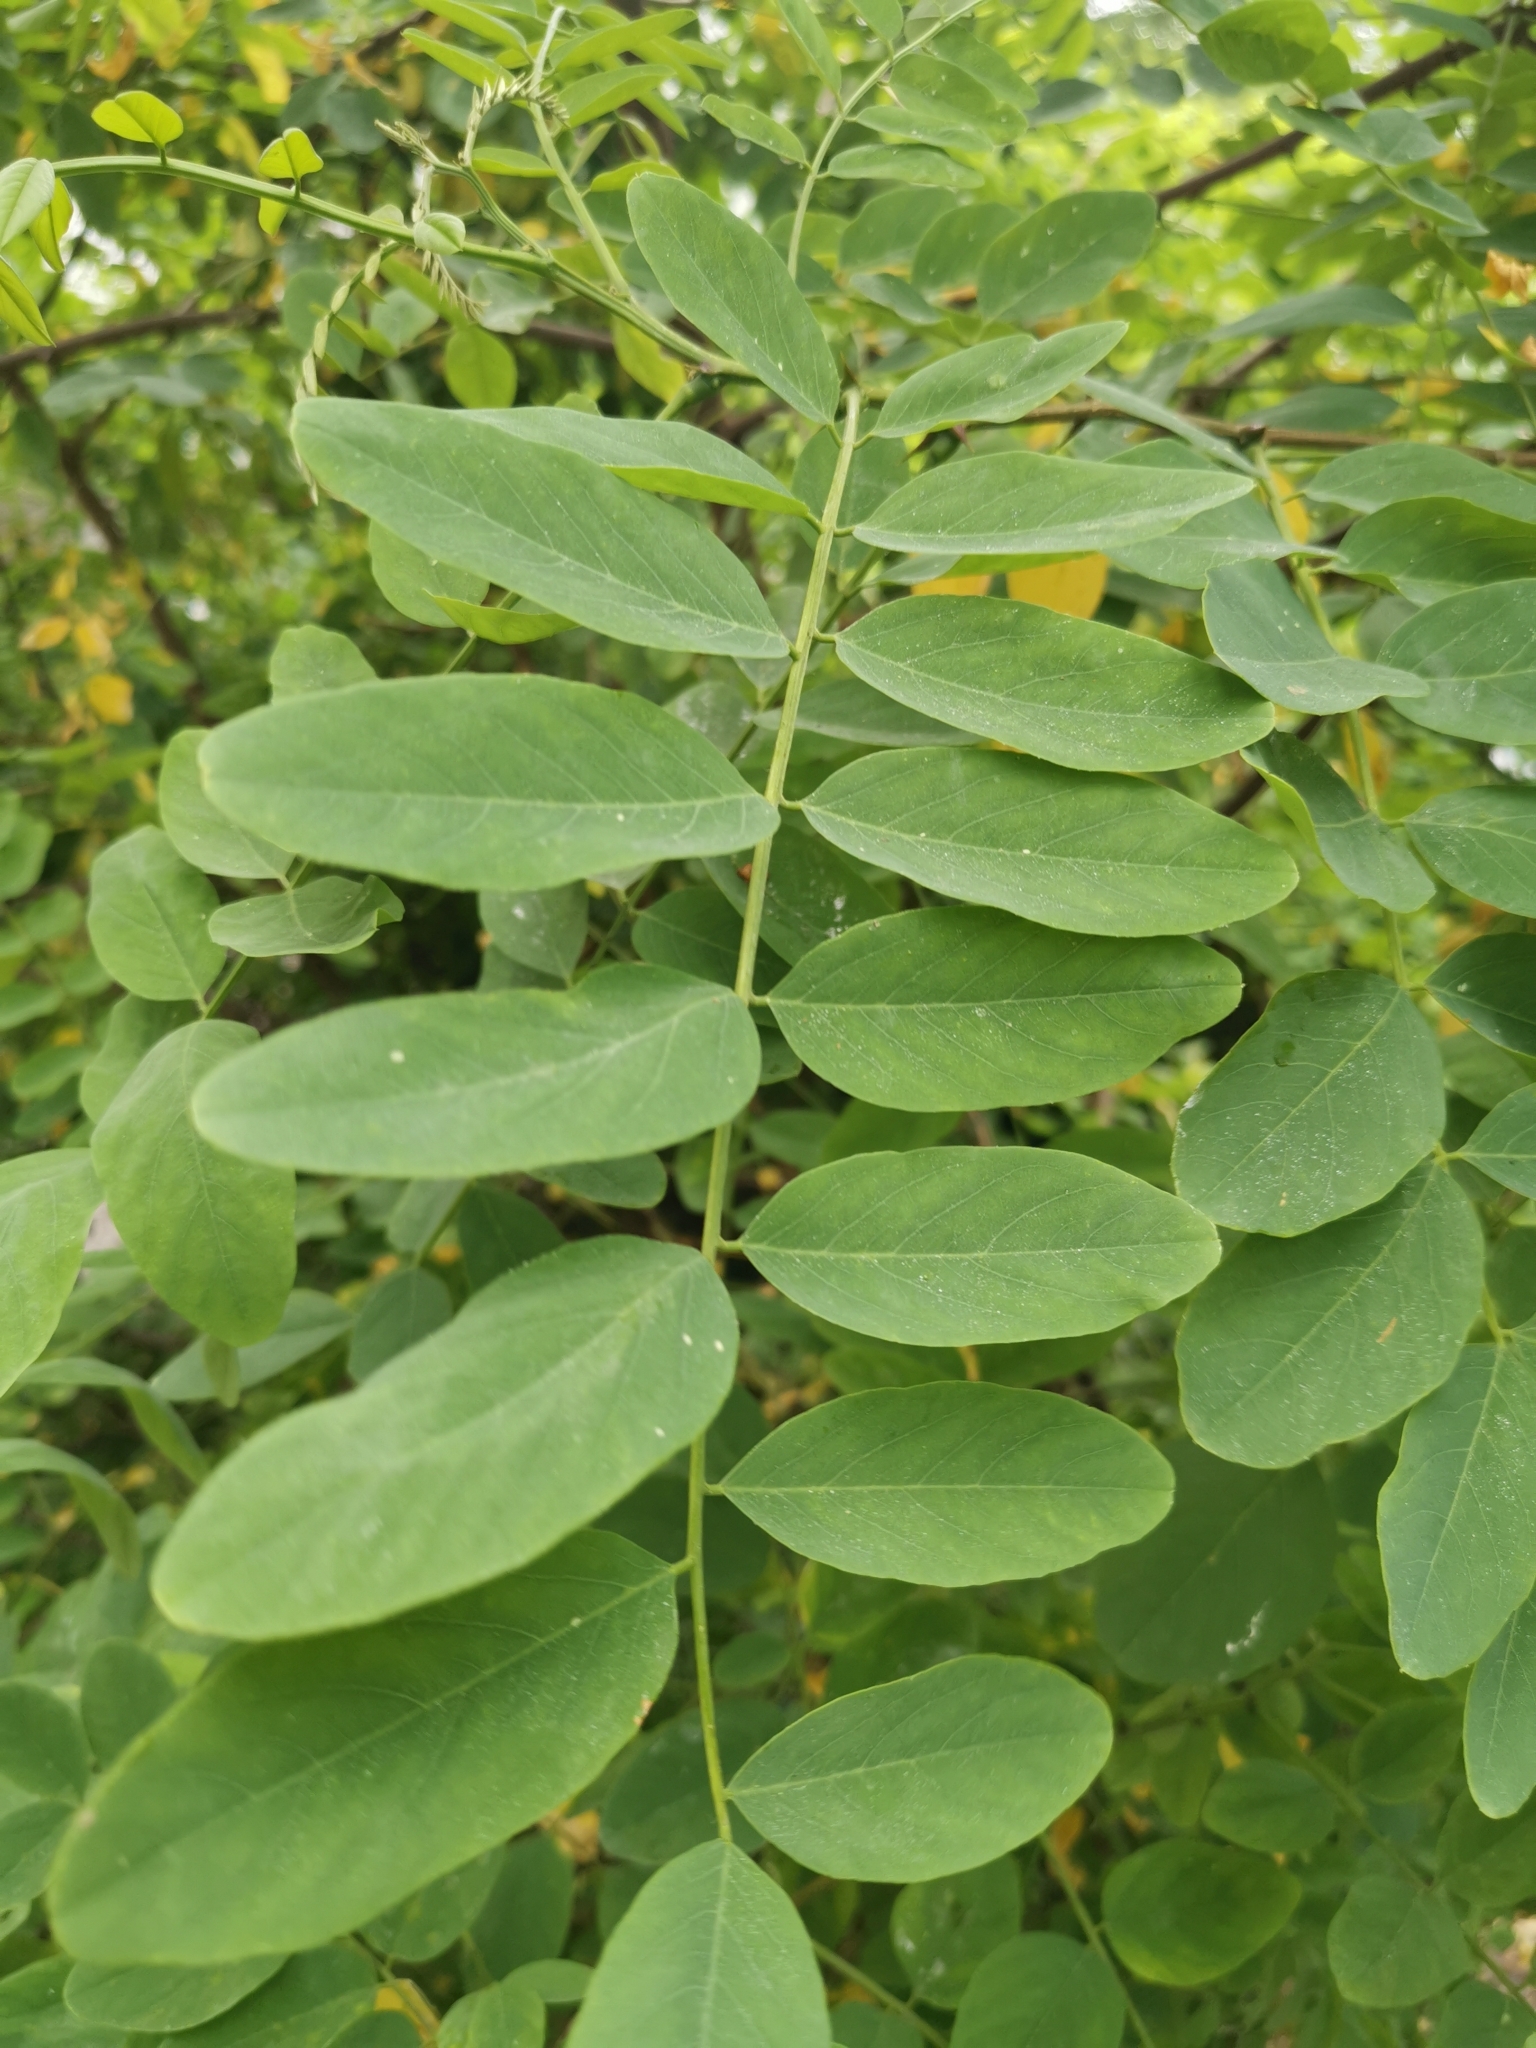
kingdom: Plantae
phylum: Tracheophyta
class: Magnoliopsida
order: Fabales
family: Fabaceae
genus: Robinia
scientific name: Robinia pseudoacacia
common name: Black locust
